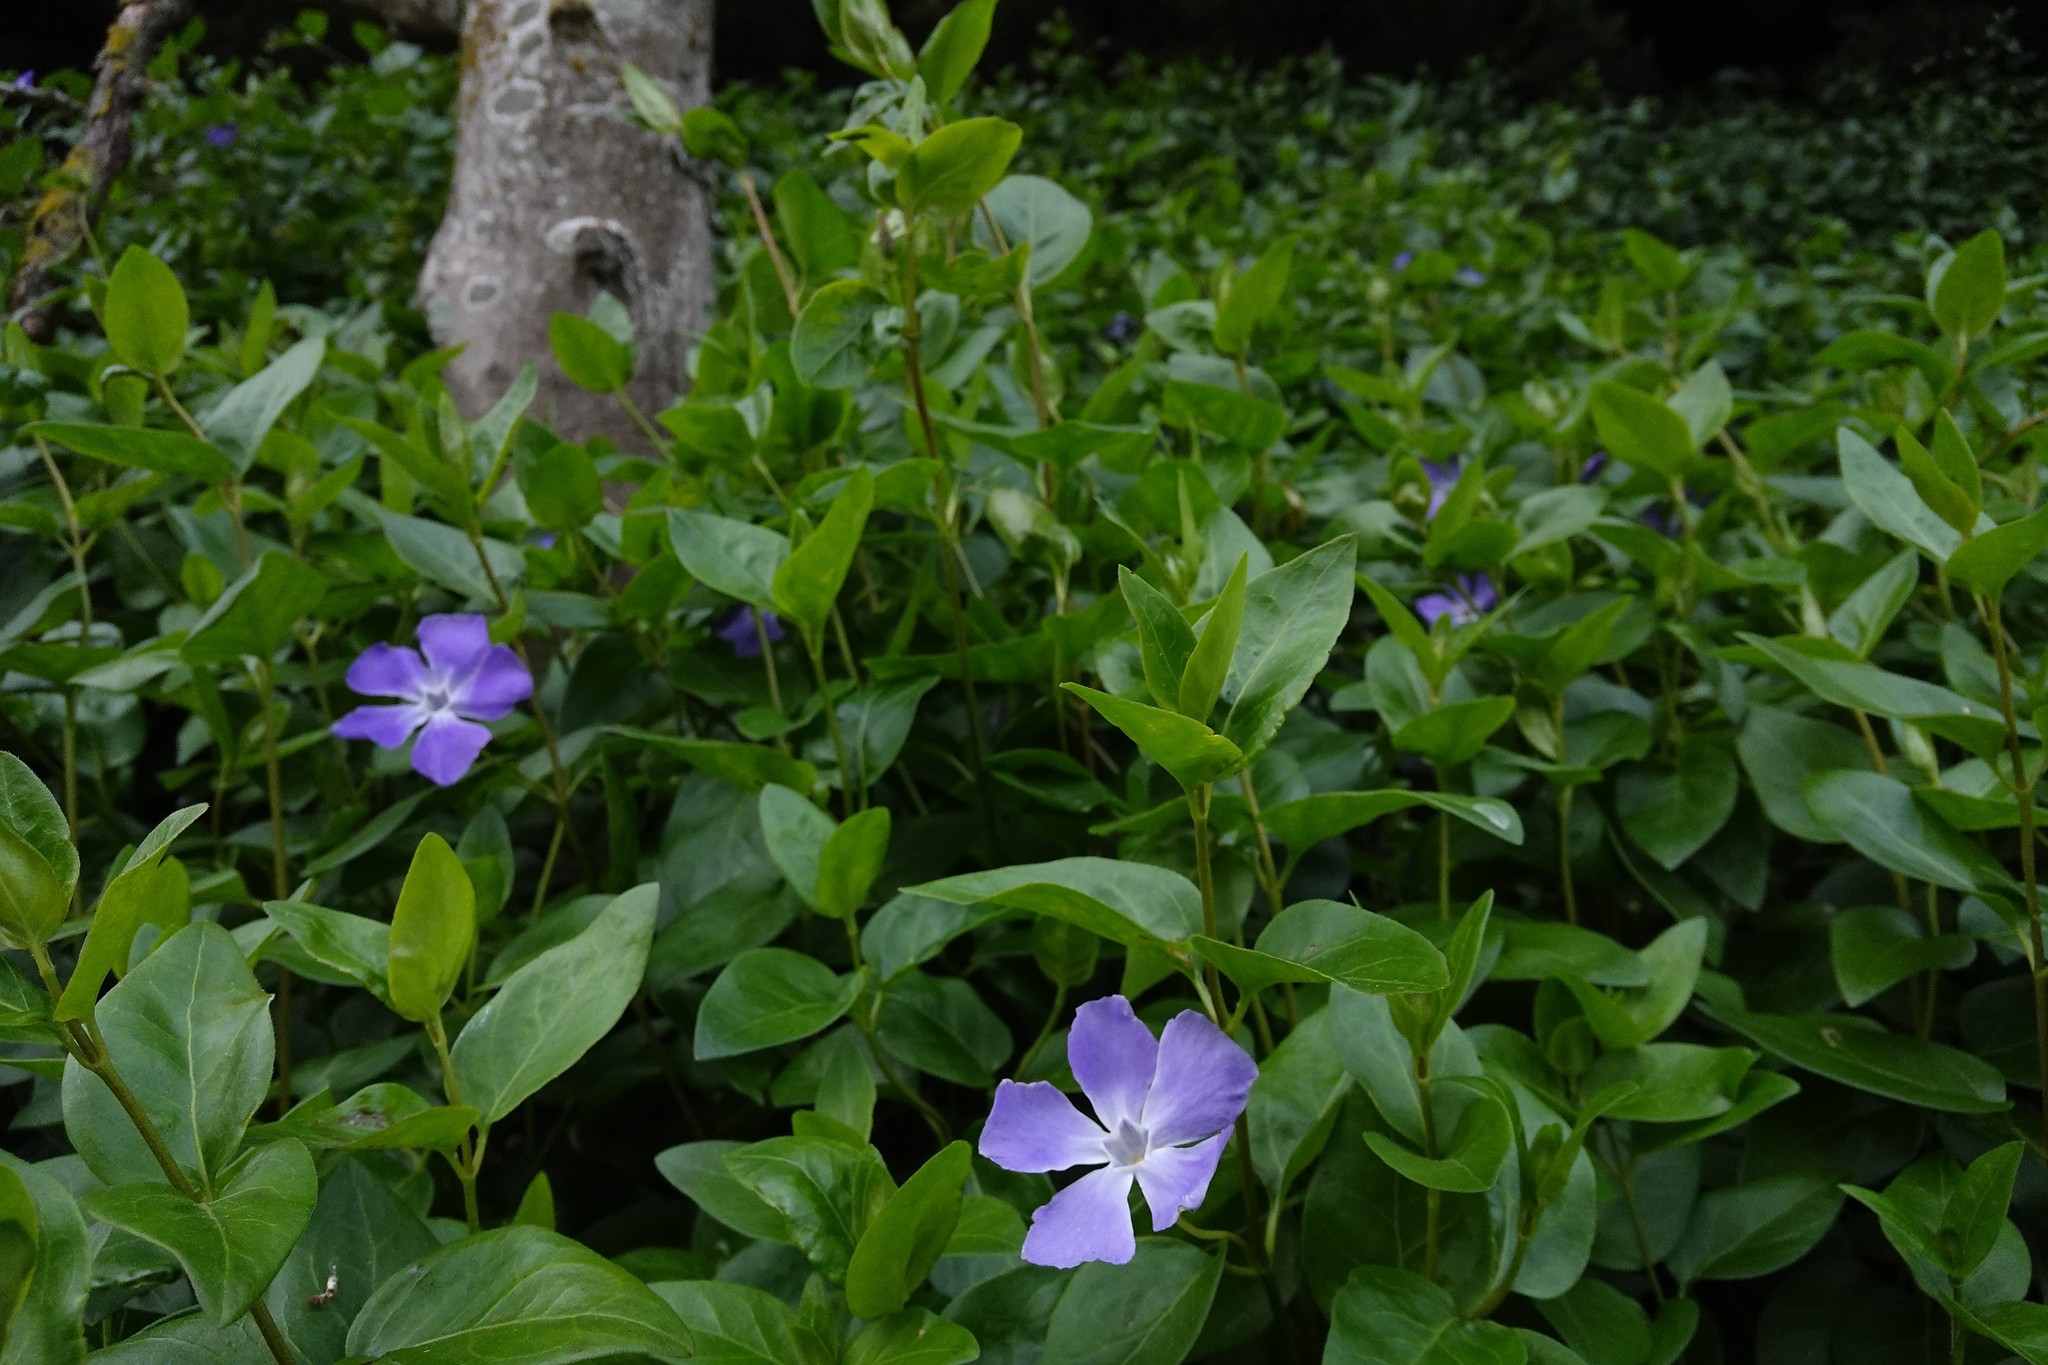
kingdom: Plantae
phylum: Tracheophyta
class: Magnoliopsida
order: Gentianales
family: Apocynaceae
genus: Vinca
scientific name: Vinca major
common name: Greater periwinkle
